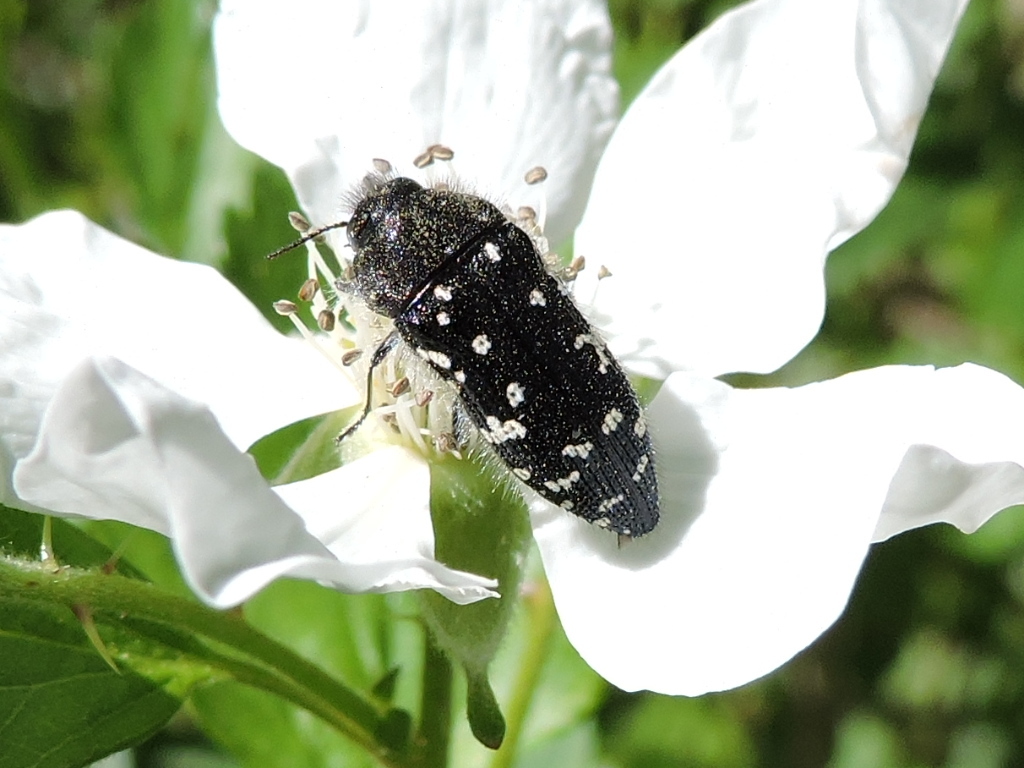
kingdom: Animalia
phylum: Arthropoda
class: Insecta
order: Coleoptera
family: Buprestidae
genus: Acmaeodera
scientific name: Acmaeodera ornatoides
